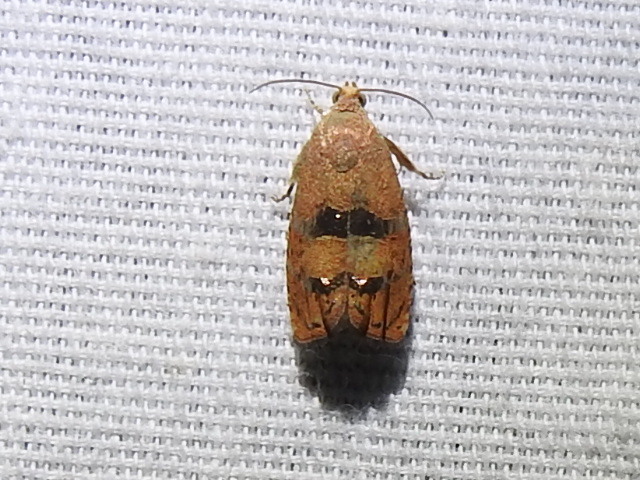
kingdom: Animalia
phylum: Arthropoda
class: Insecta
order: Lepidoptera
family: Tortricidae
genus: Cydia
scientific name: Cydia latiferreana
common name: Filbertworm moth
